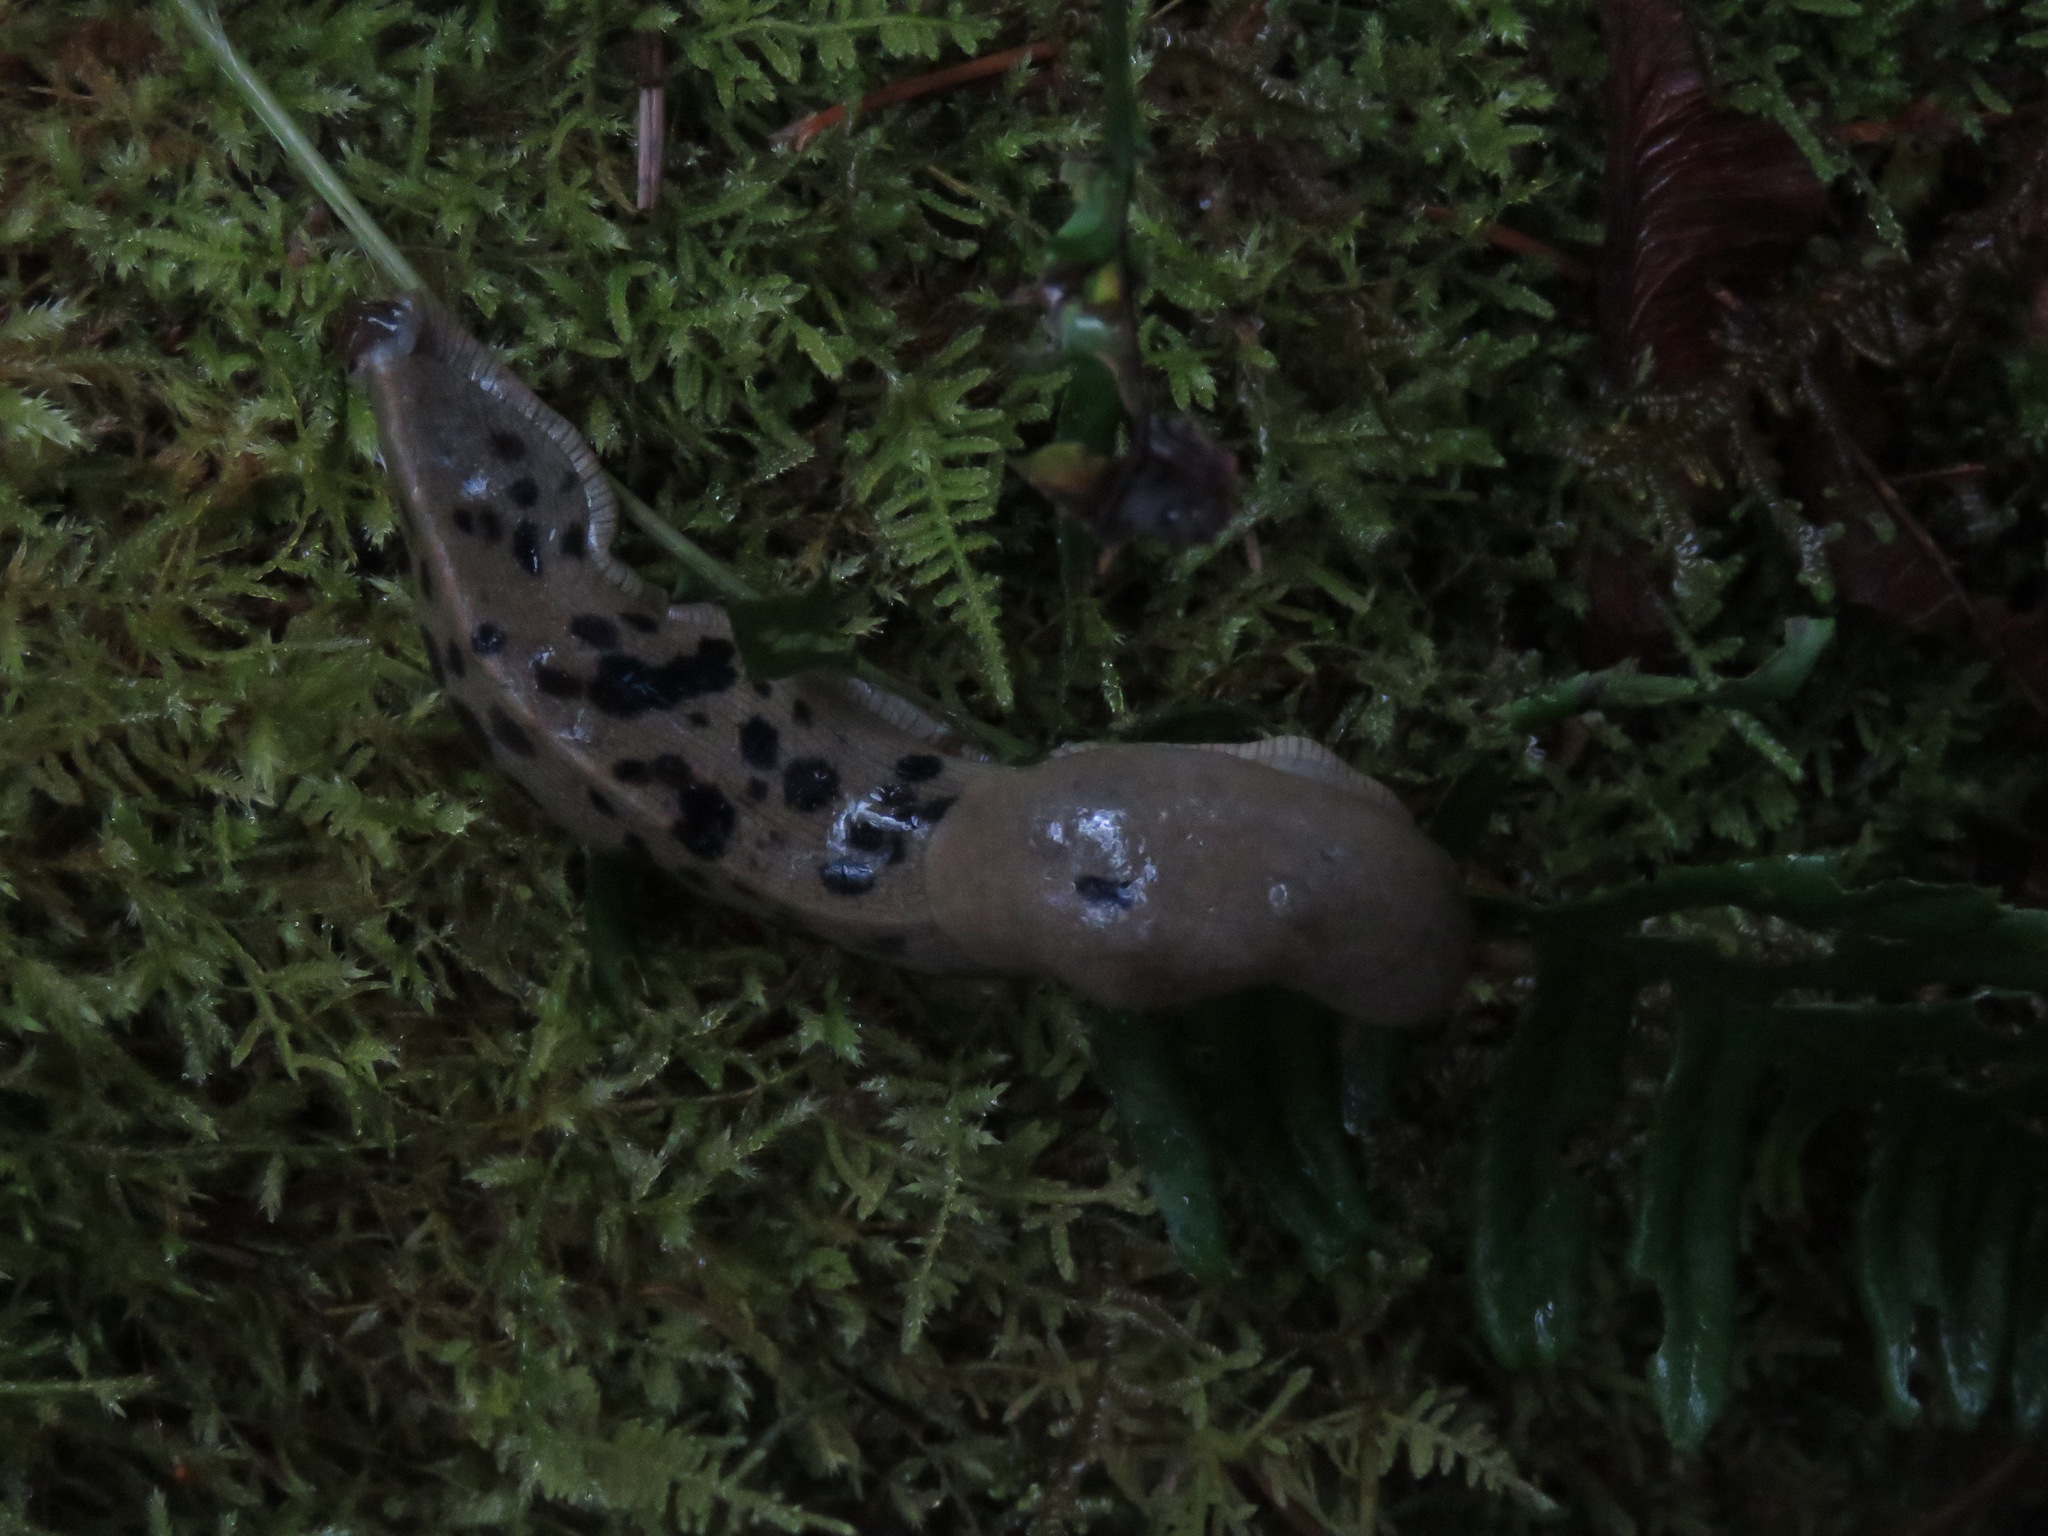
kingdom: Animalia
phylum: Mollusca
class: Gastropoda
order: Stylommatophora
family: Ariolimacidae
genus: Ariolimax
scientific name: Ariolimax columbianus
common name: Pacific banana slug
